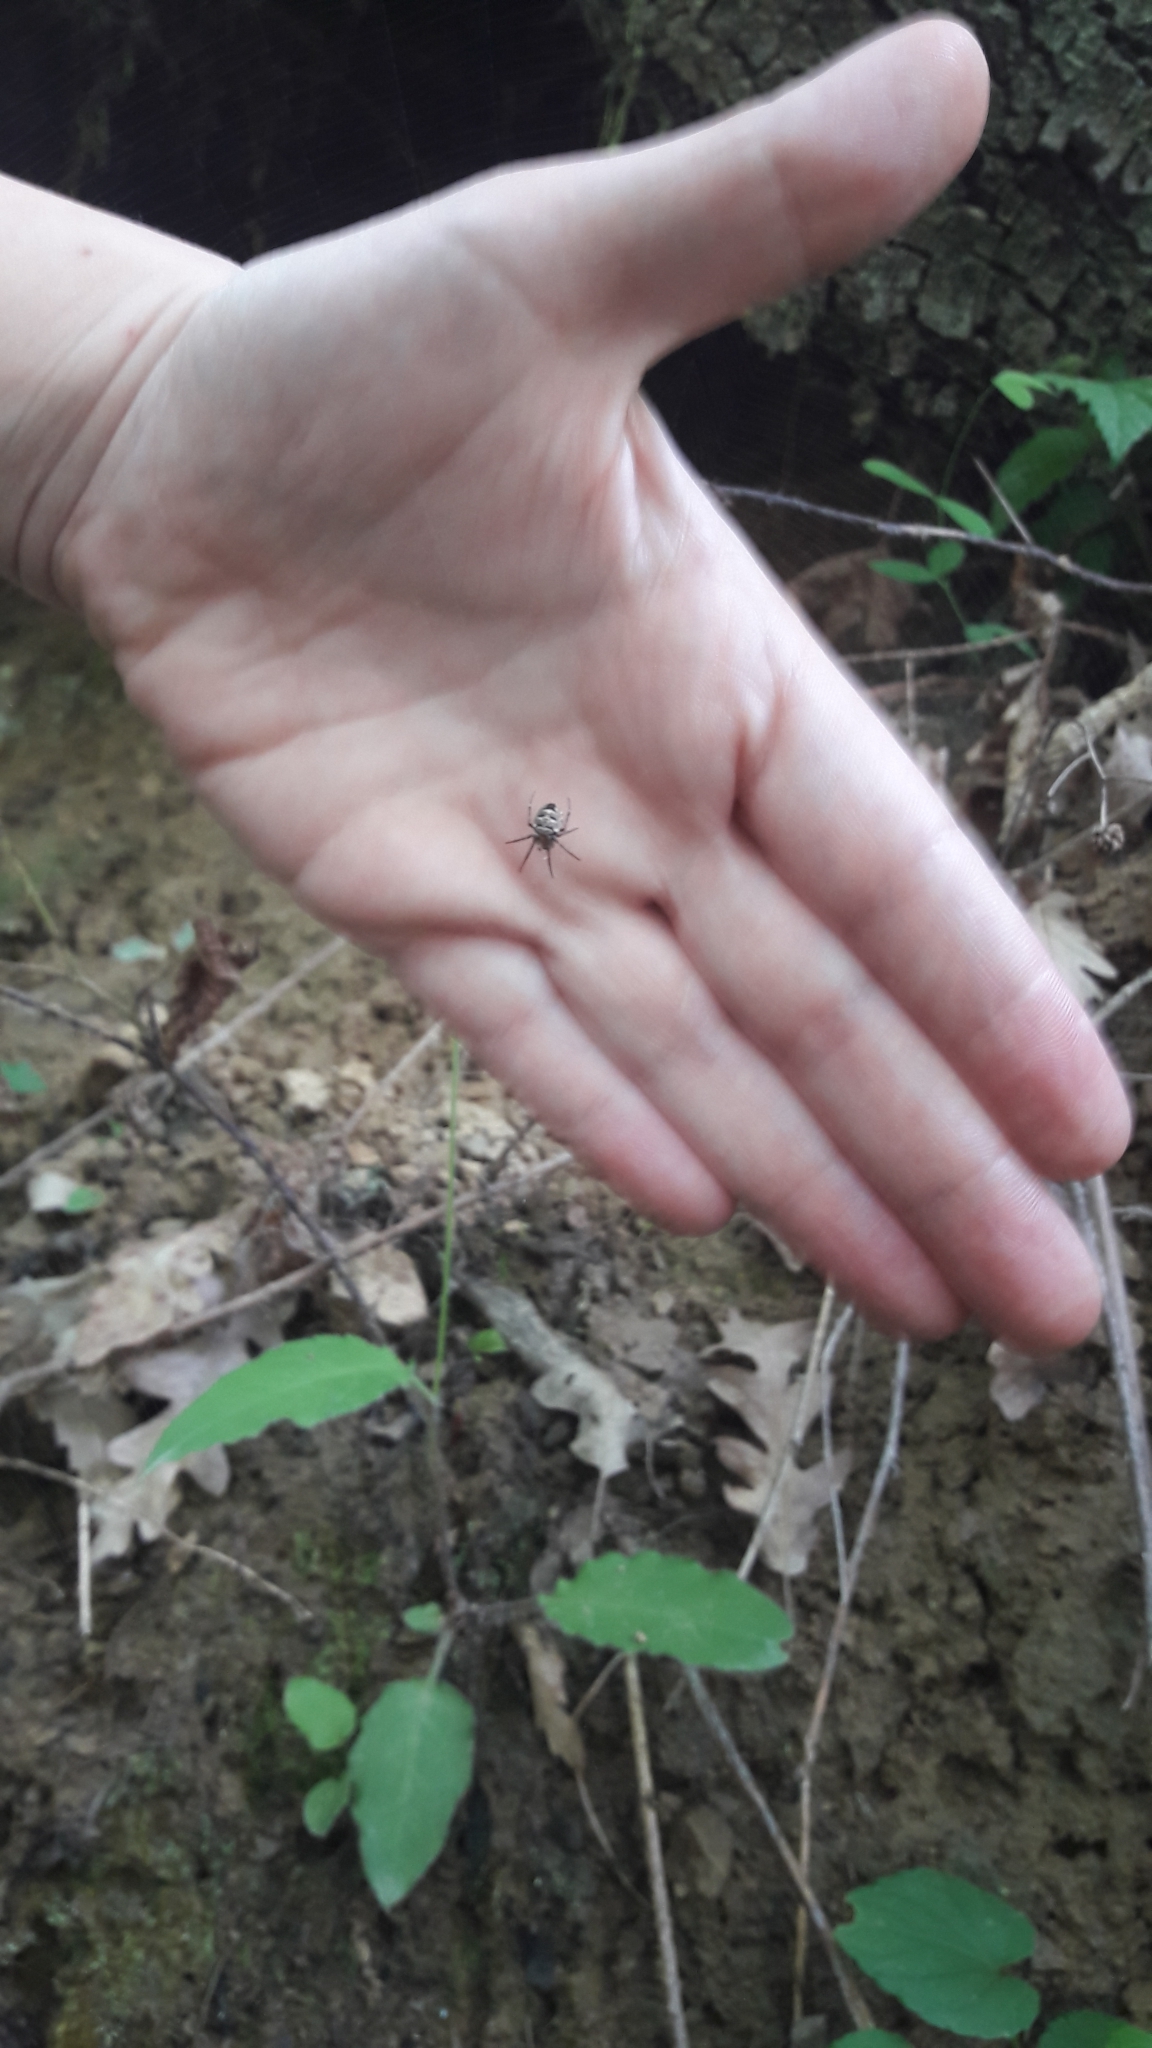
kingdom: Animalia
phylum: Arthropoda
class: Arachnida
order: Araneae
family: Araneidae
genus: Zilla
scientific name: Zilla diodia
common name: Zilla diodia
